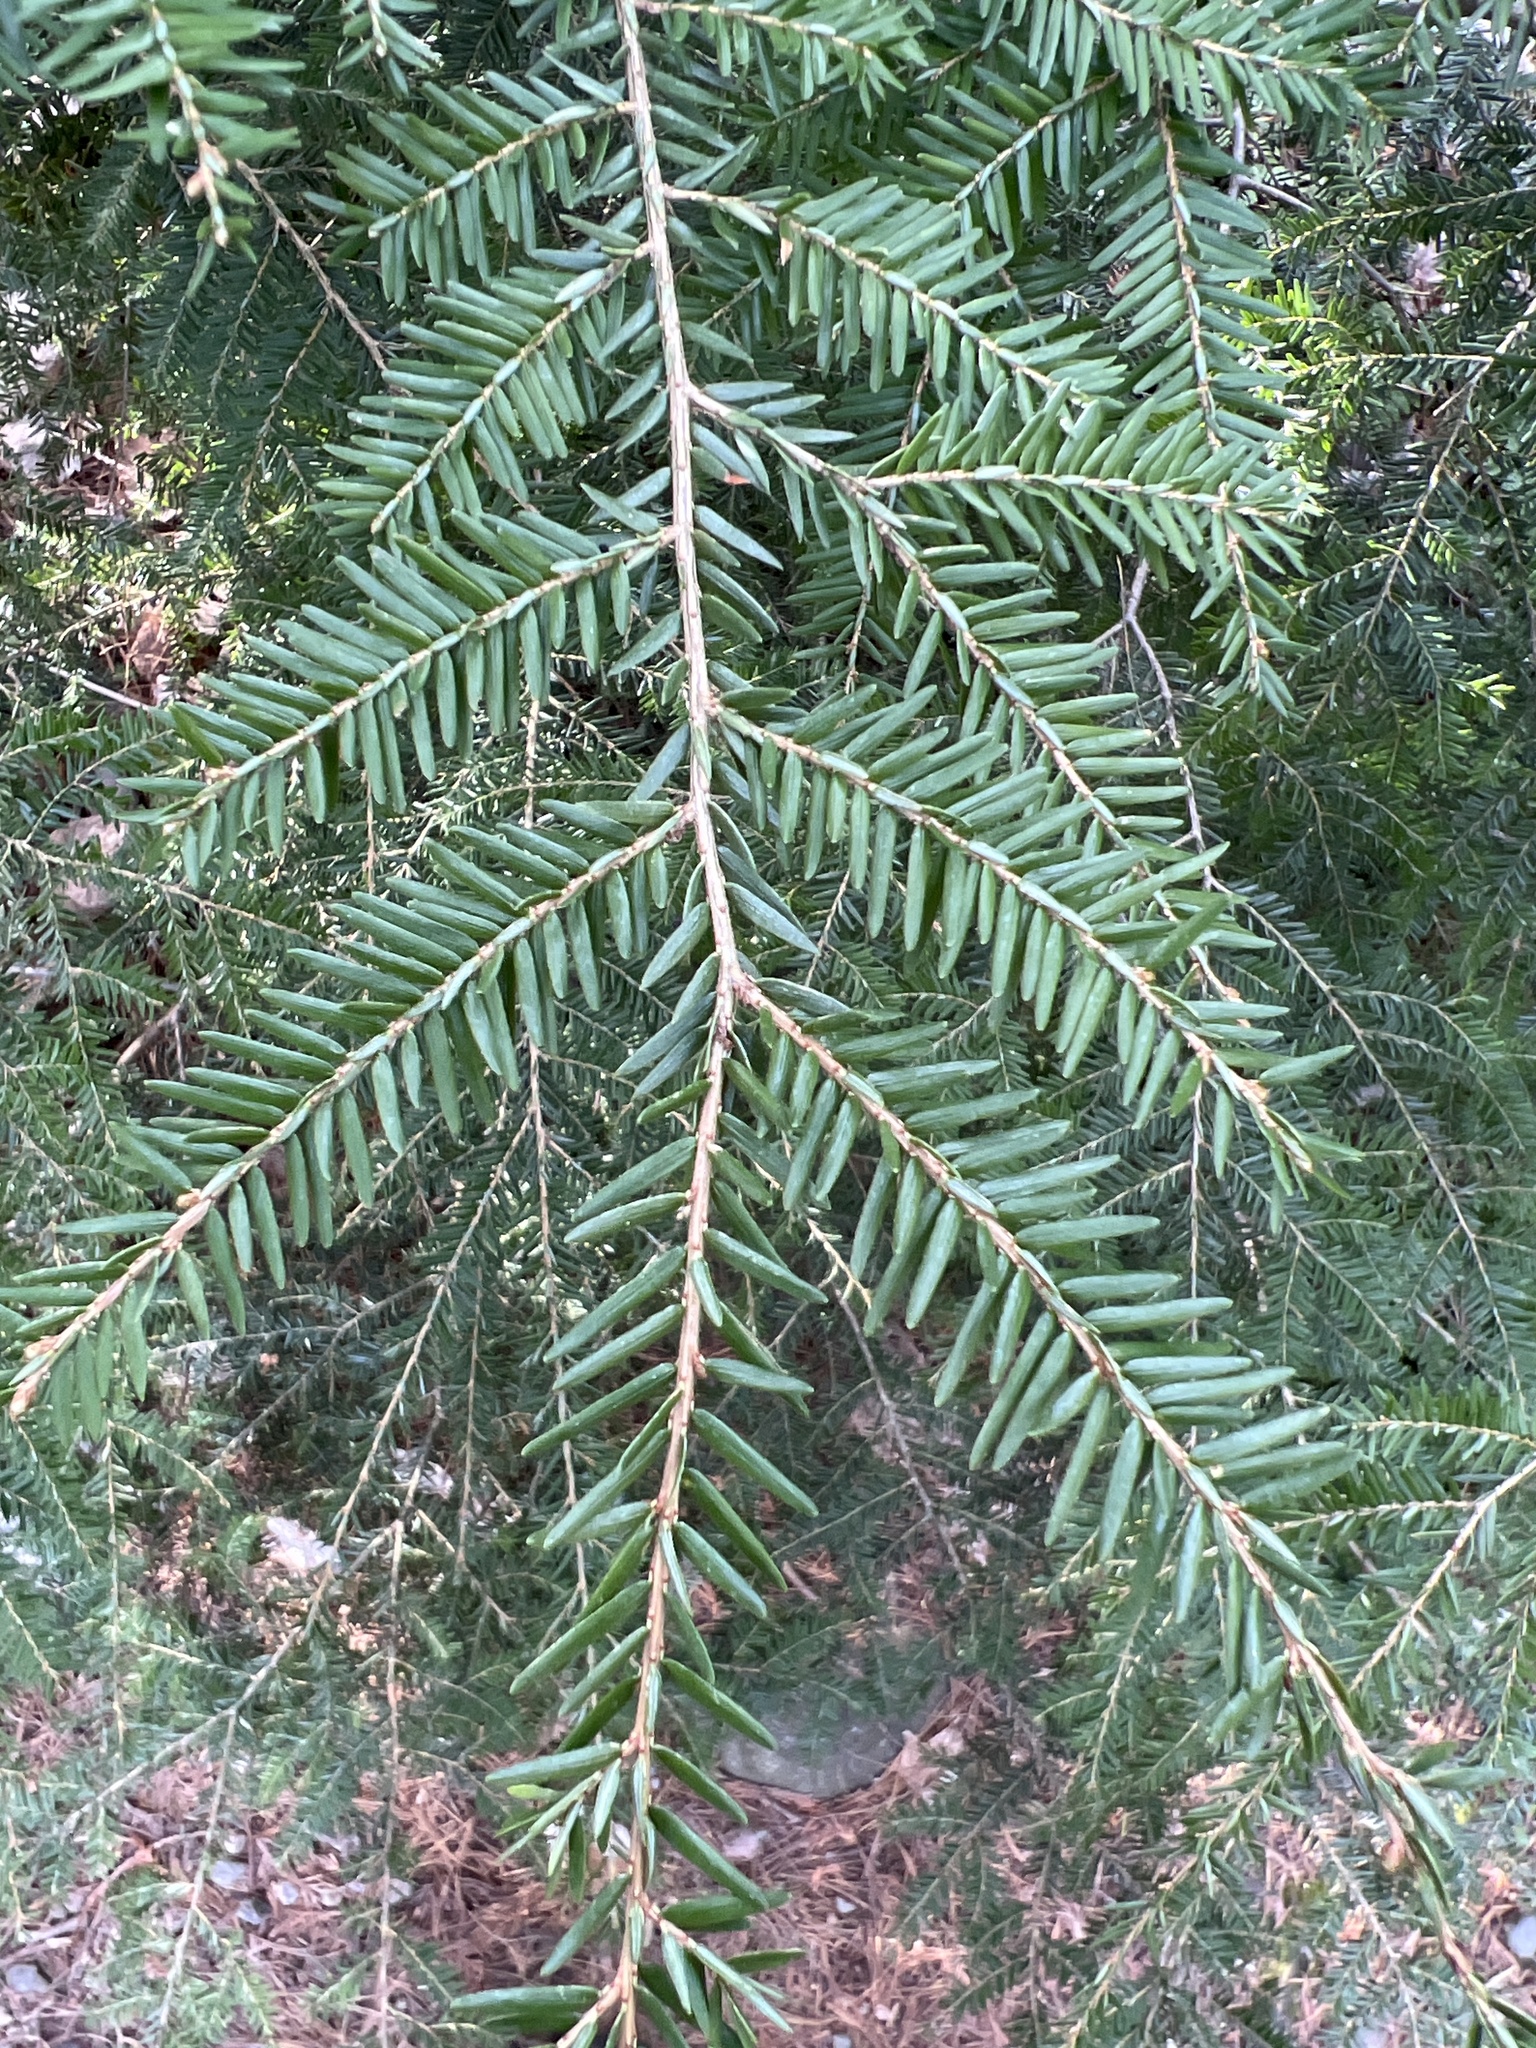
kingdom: Plantae
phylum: Tracheophyta
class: Pinopsida
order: Pinales
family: Pinaceae
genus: Tsuga
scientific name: Tsuga canadensis
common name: Eastern hemlock
